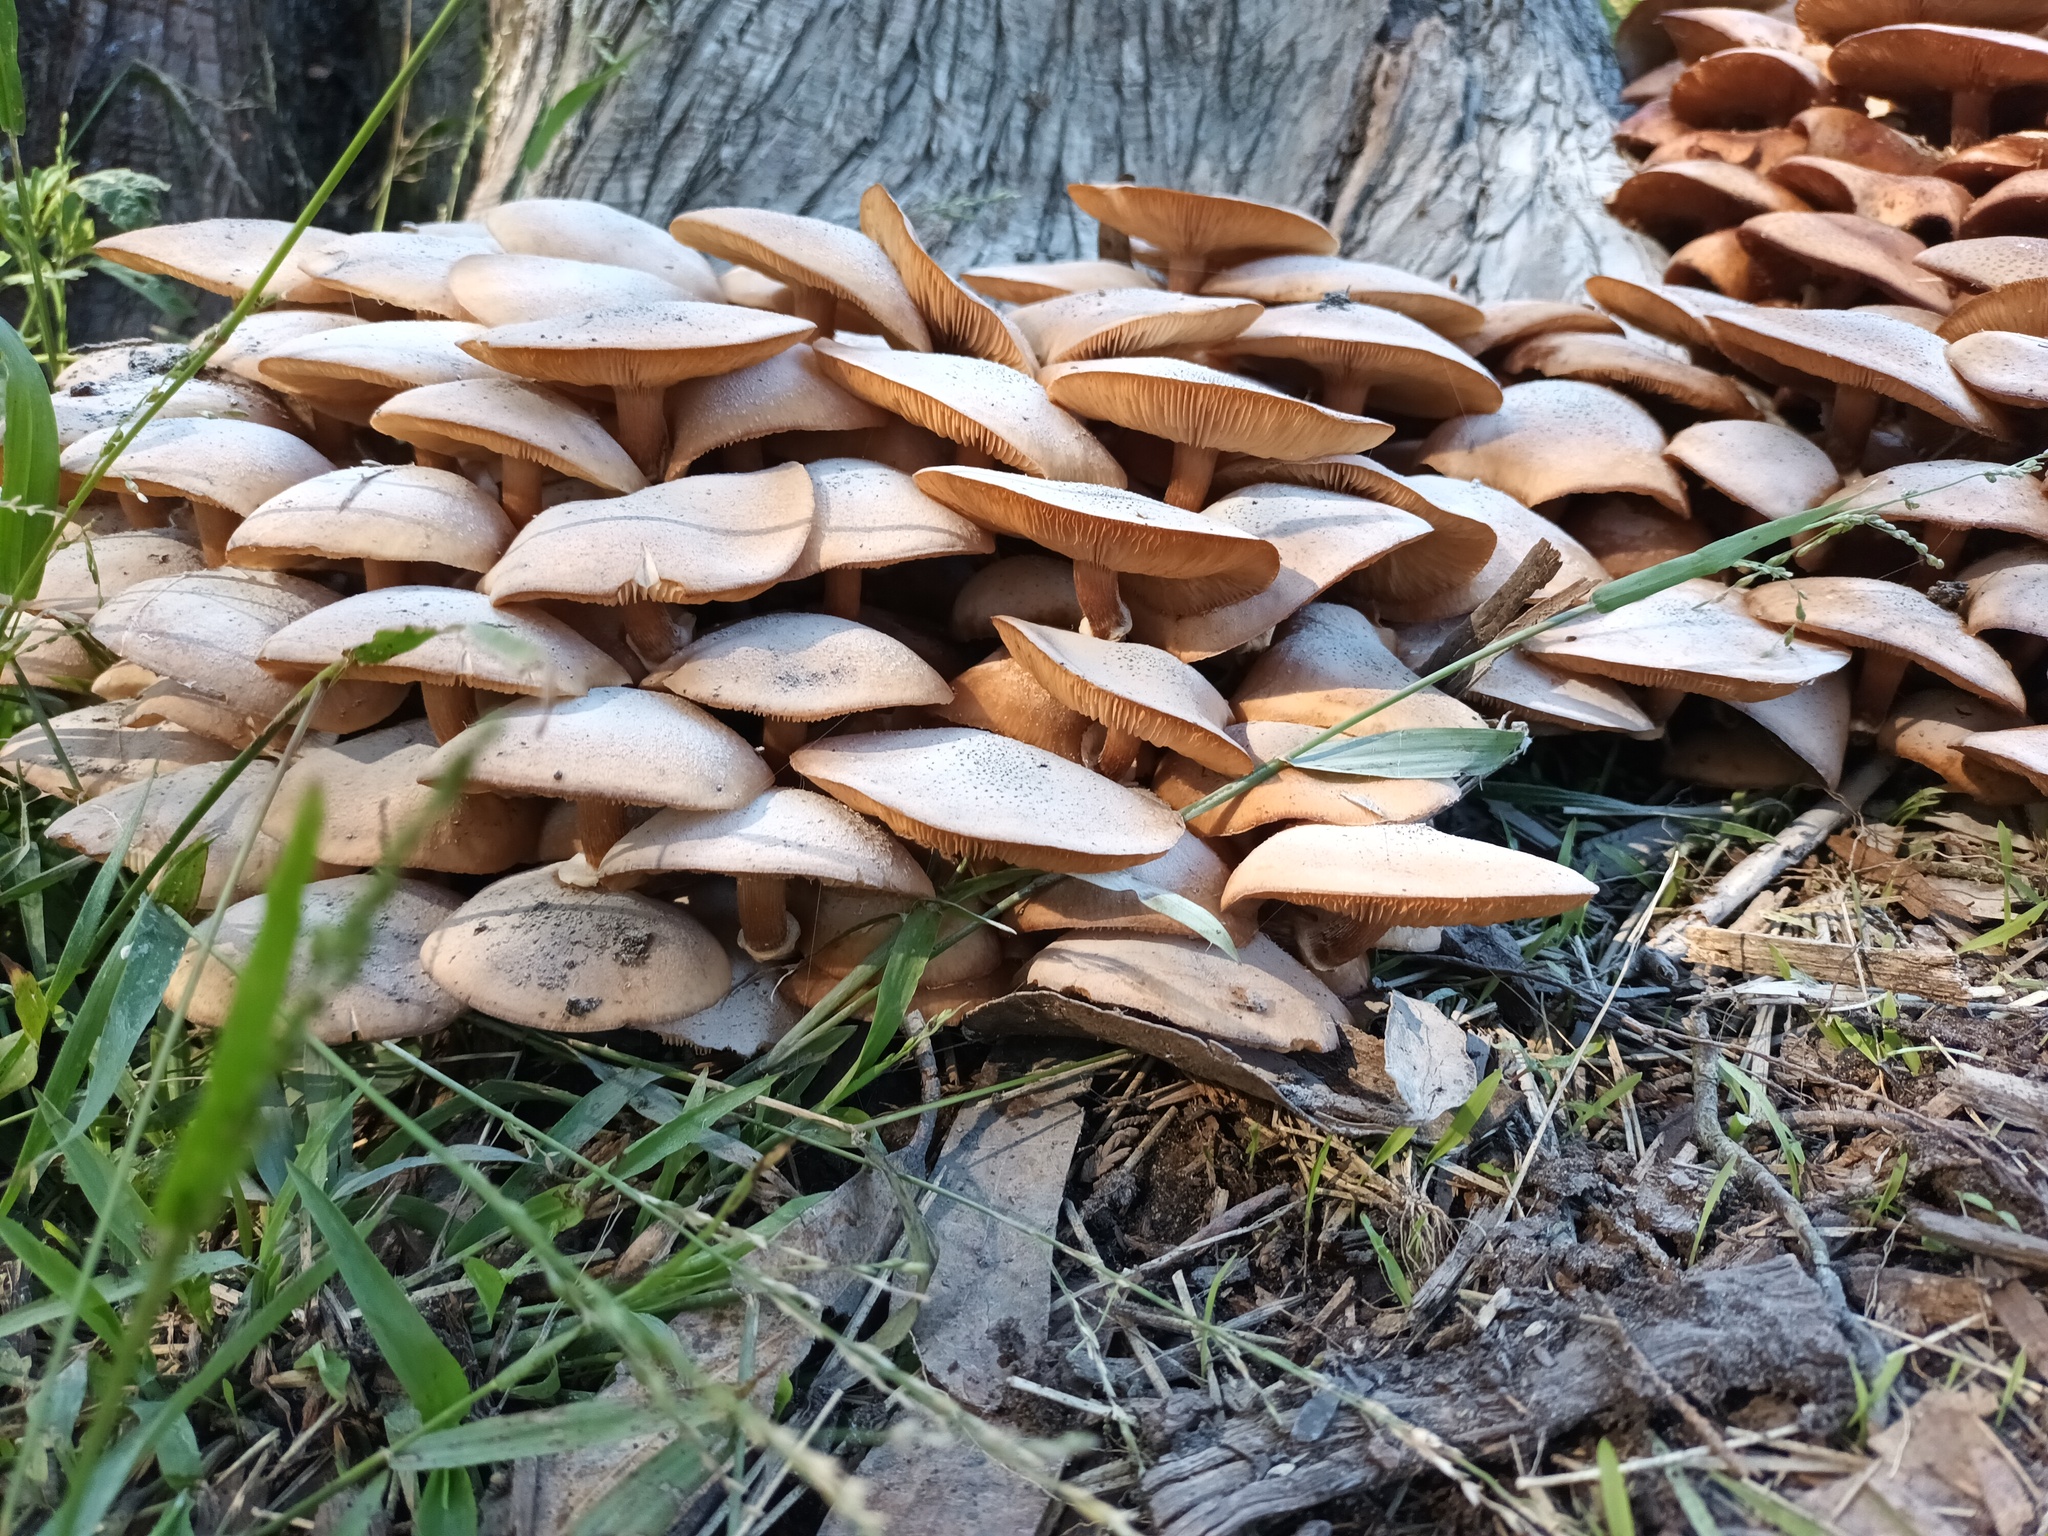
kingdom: Fungi
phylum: Basidiomycota
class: Agaricomycetes
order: Agaricales
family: Physalacriaceae
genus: Armillaria
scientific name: Armillaria mellea
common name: Honey fungus
